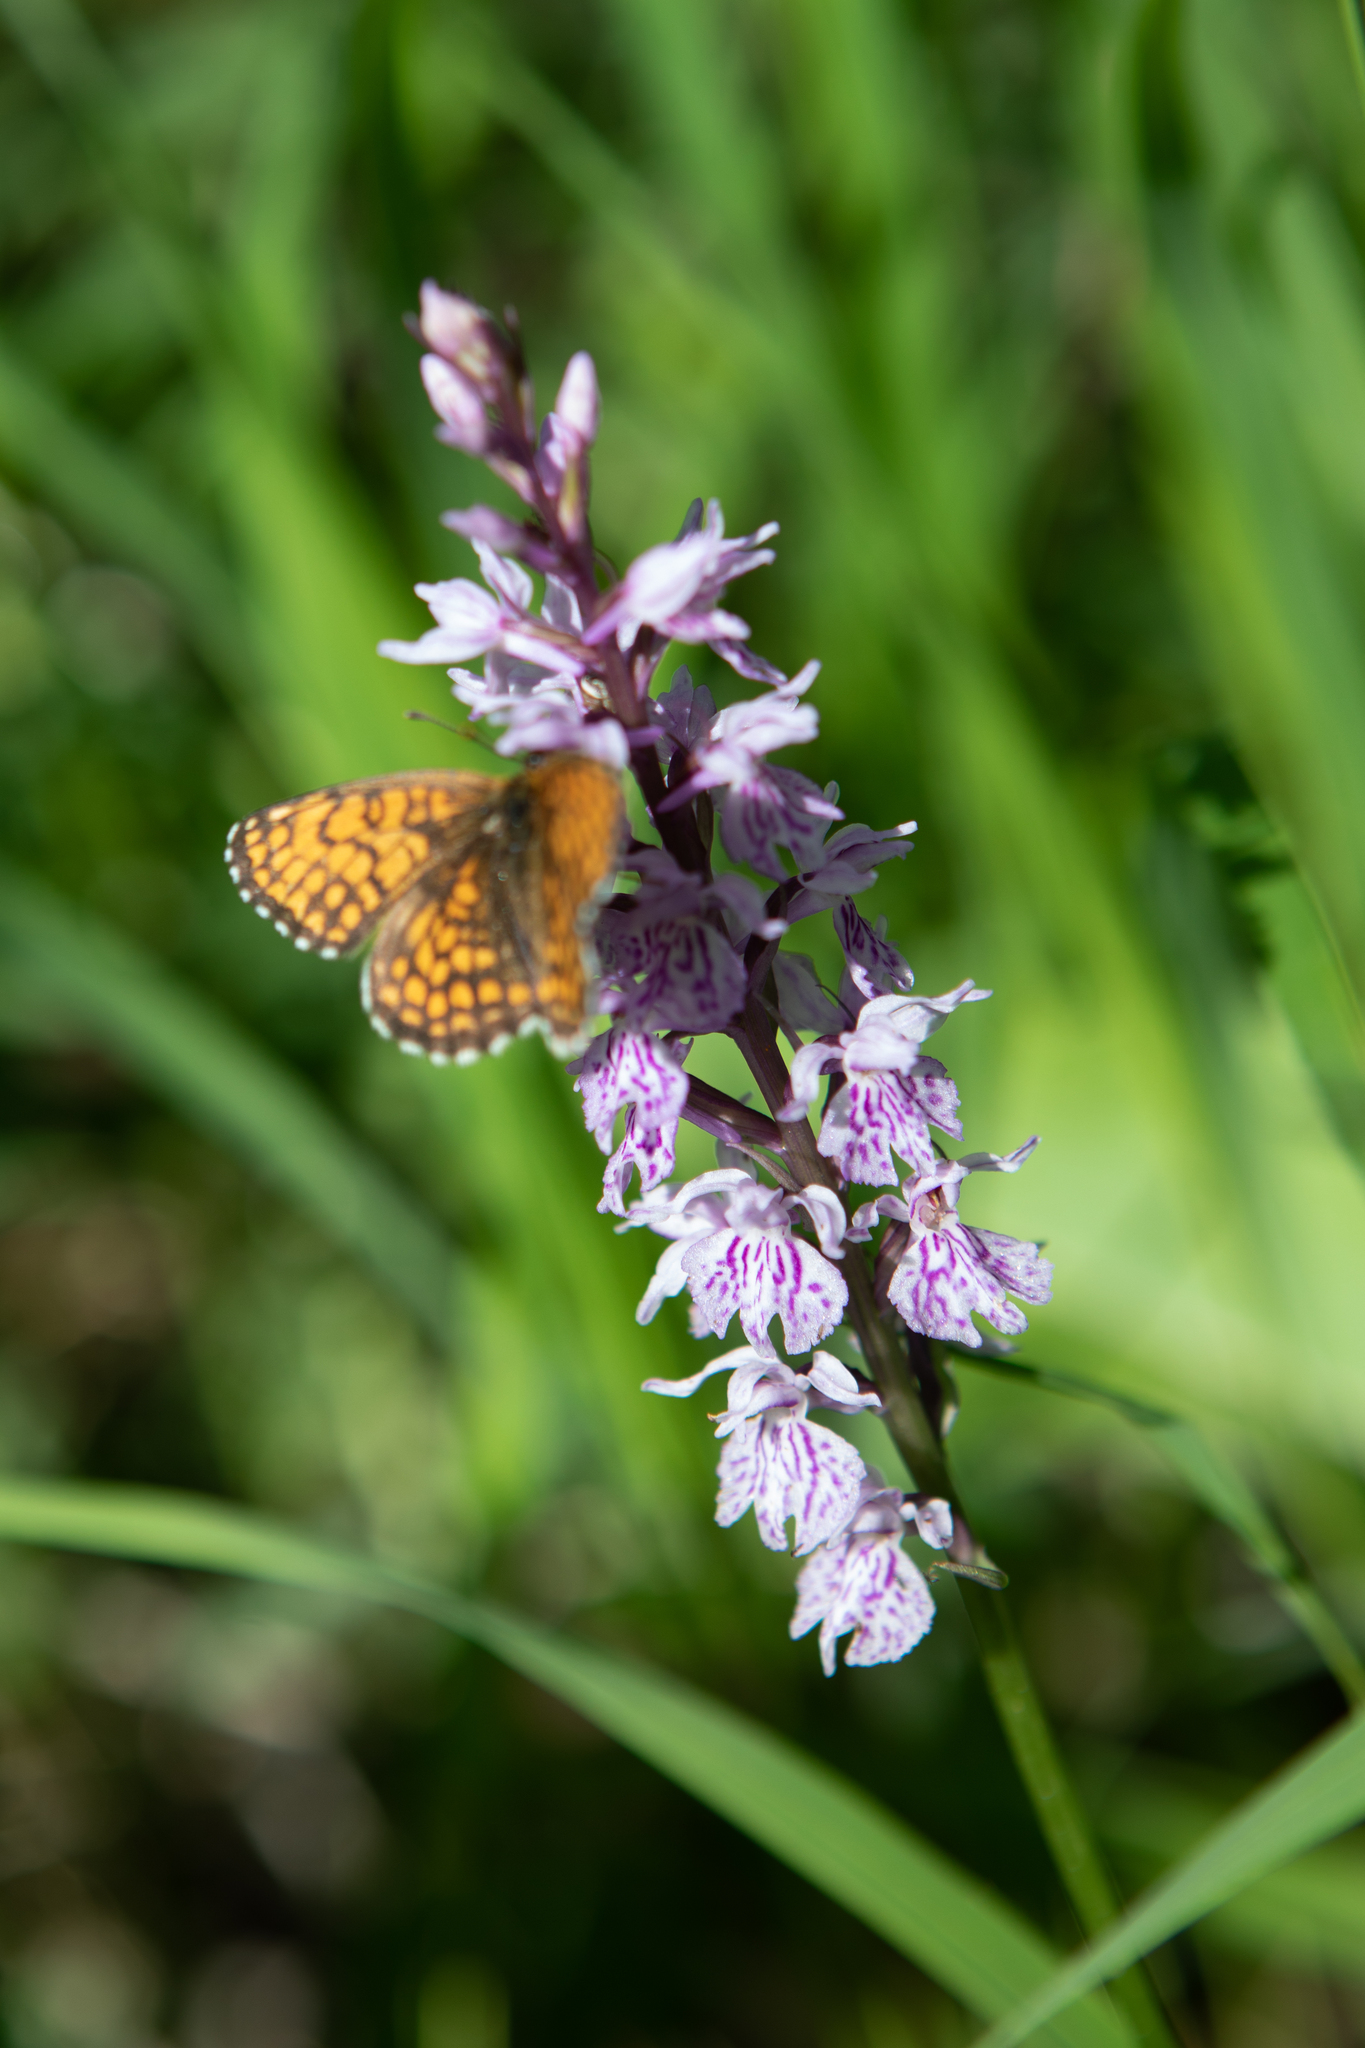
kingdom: Animalia
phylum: Arthropoda
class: Insecta
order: Lepidoptera
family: Nymphalidae
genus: Melitaea
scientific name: Melitaea
